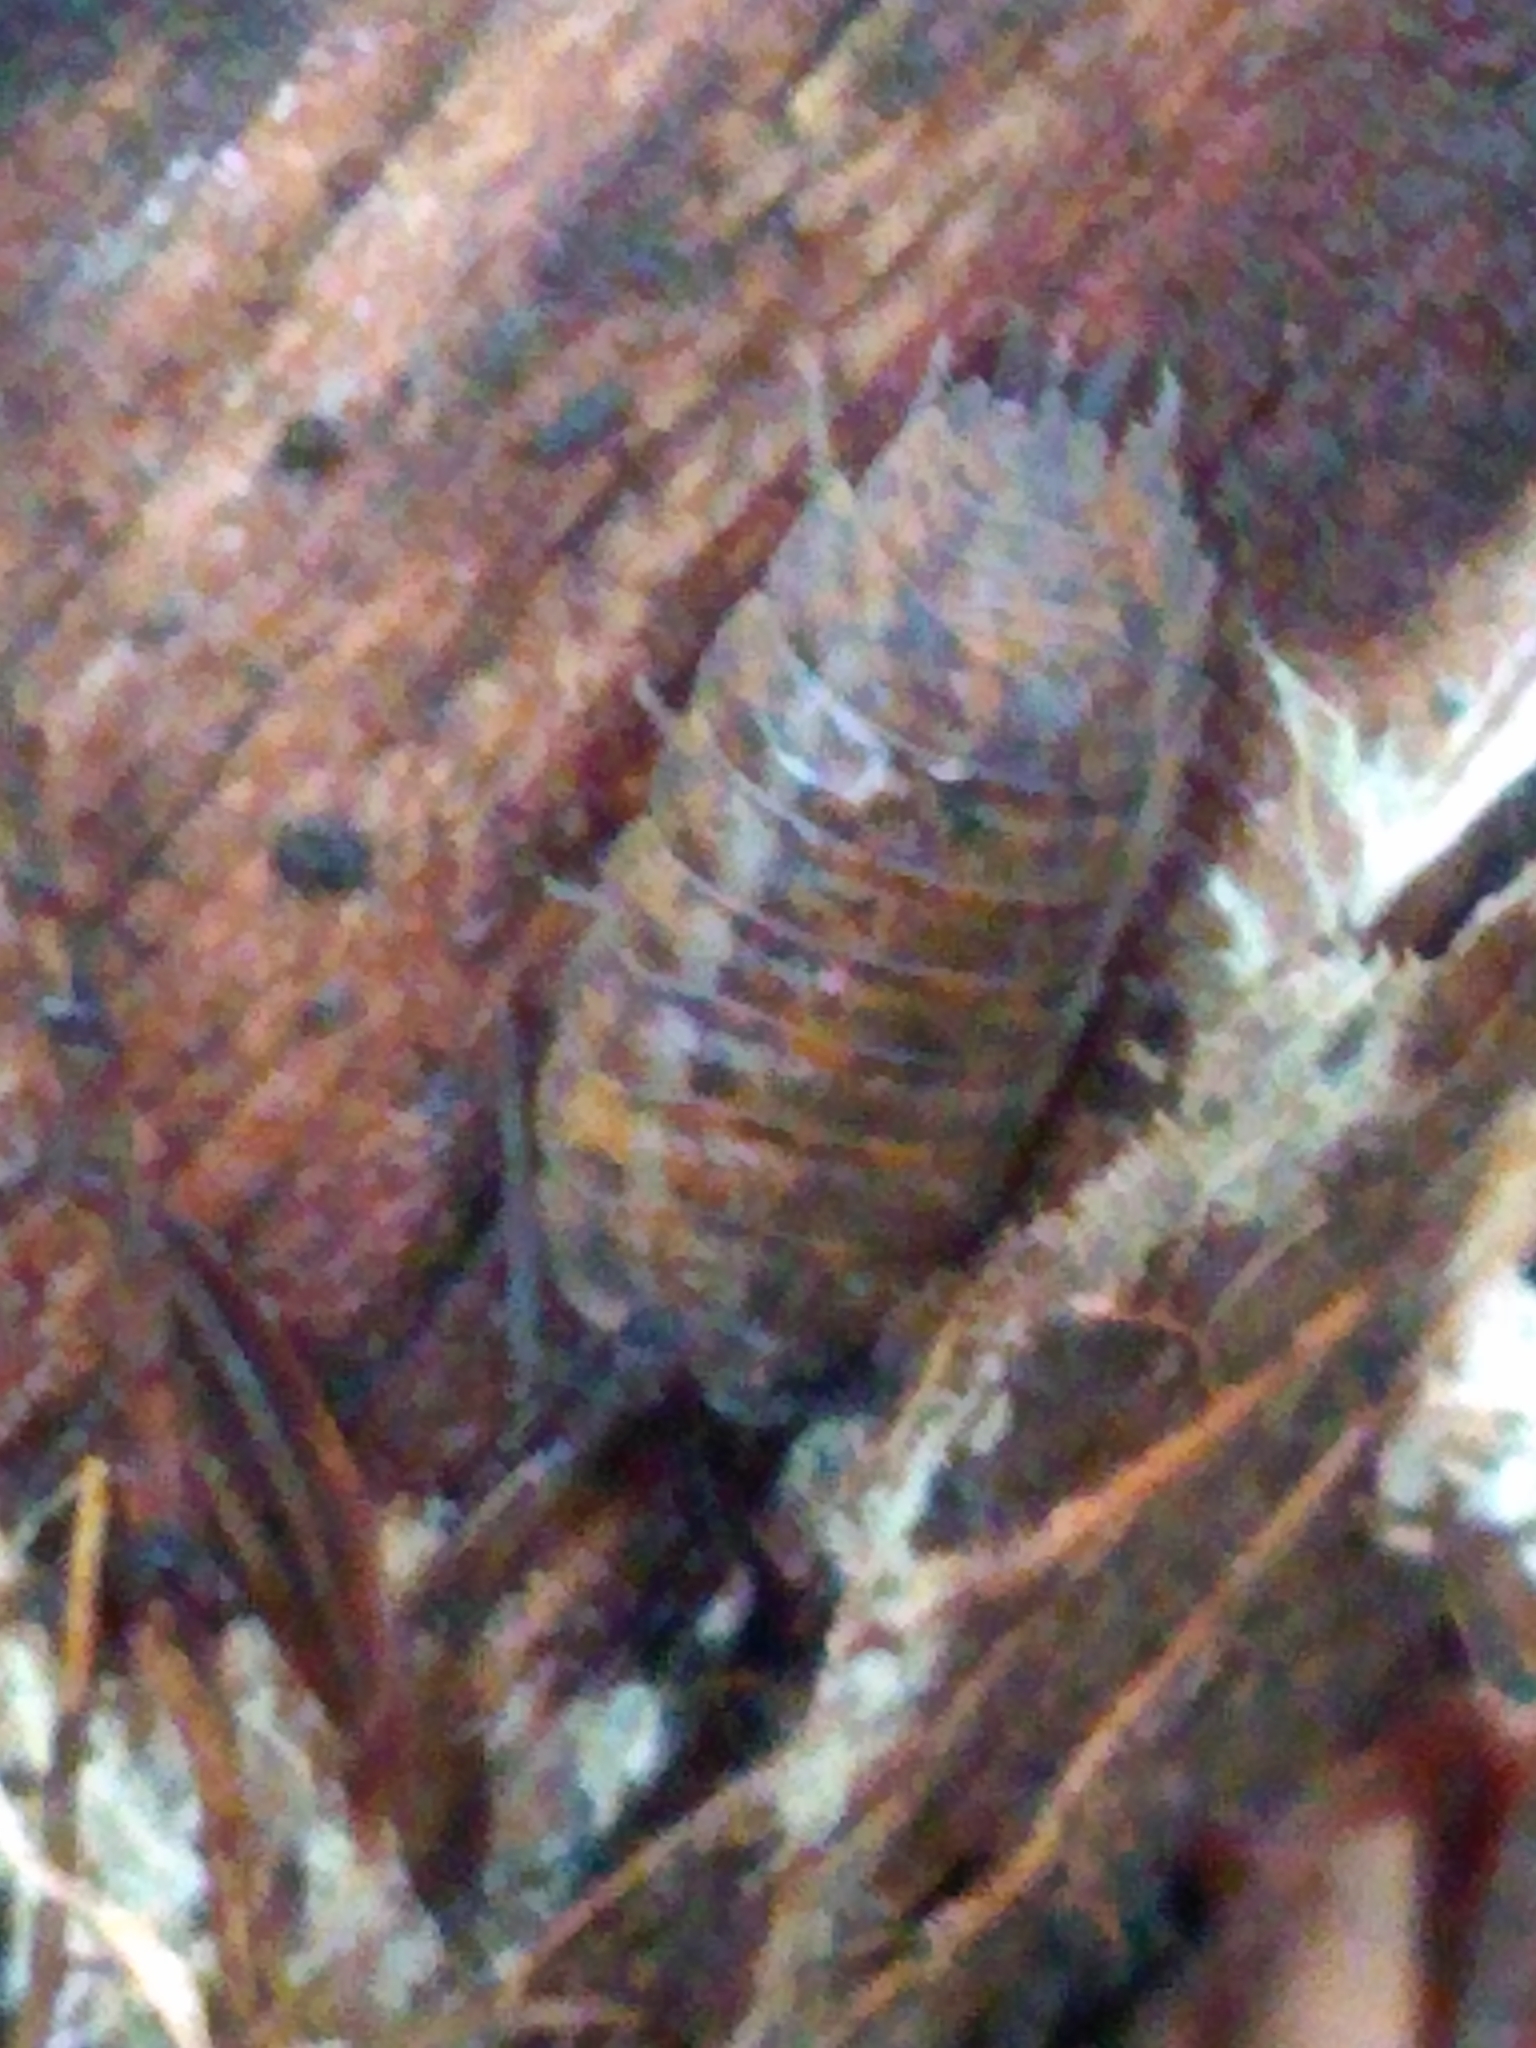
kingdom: Animalia
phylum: Arthropoda
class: Malacostraca
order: Isopoda
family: Trachelipodidae
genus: Trachelipus
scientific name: Trachelipus rathkii
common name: Isopod
